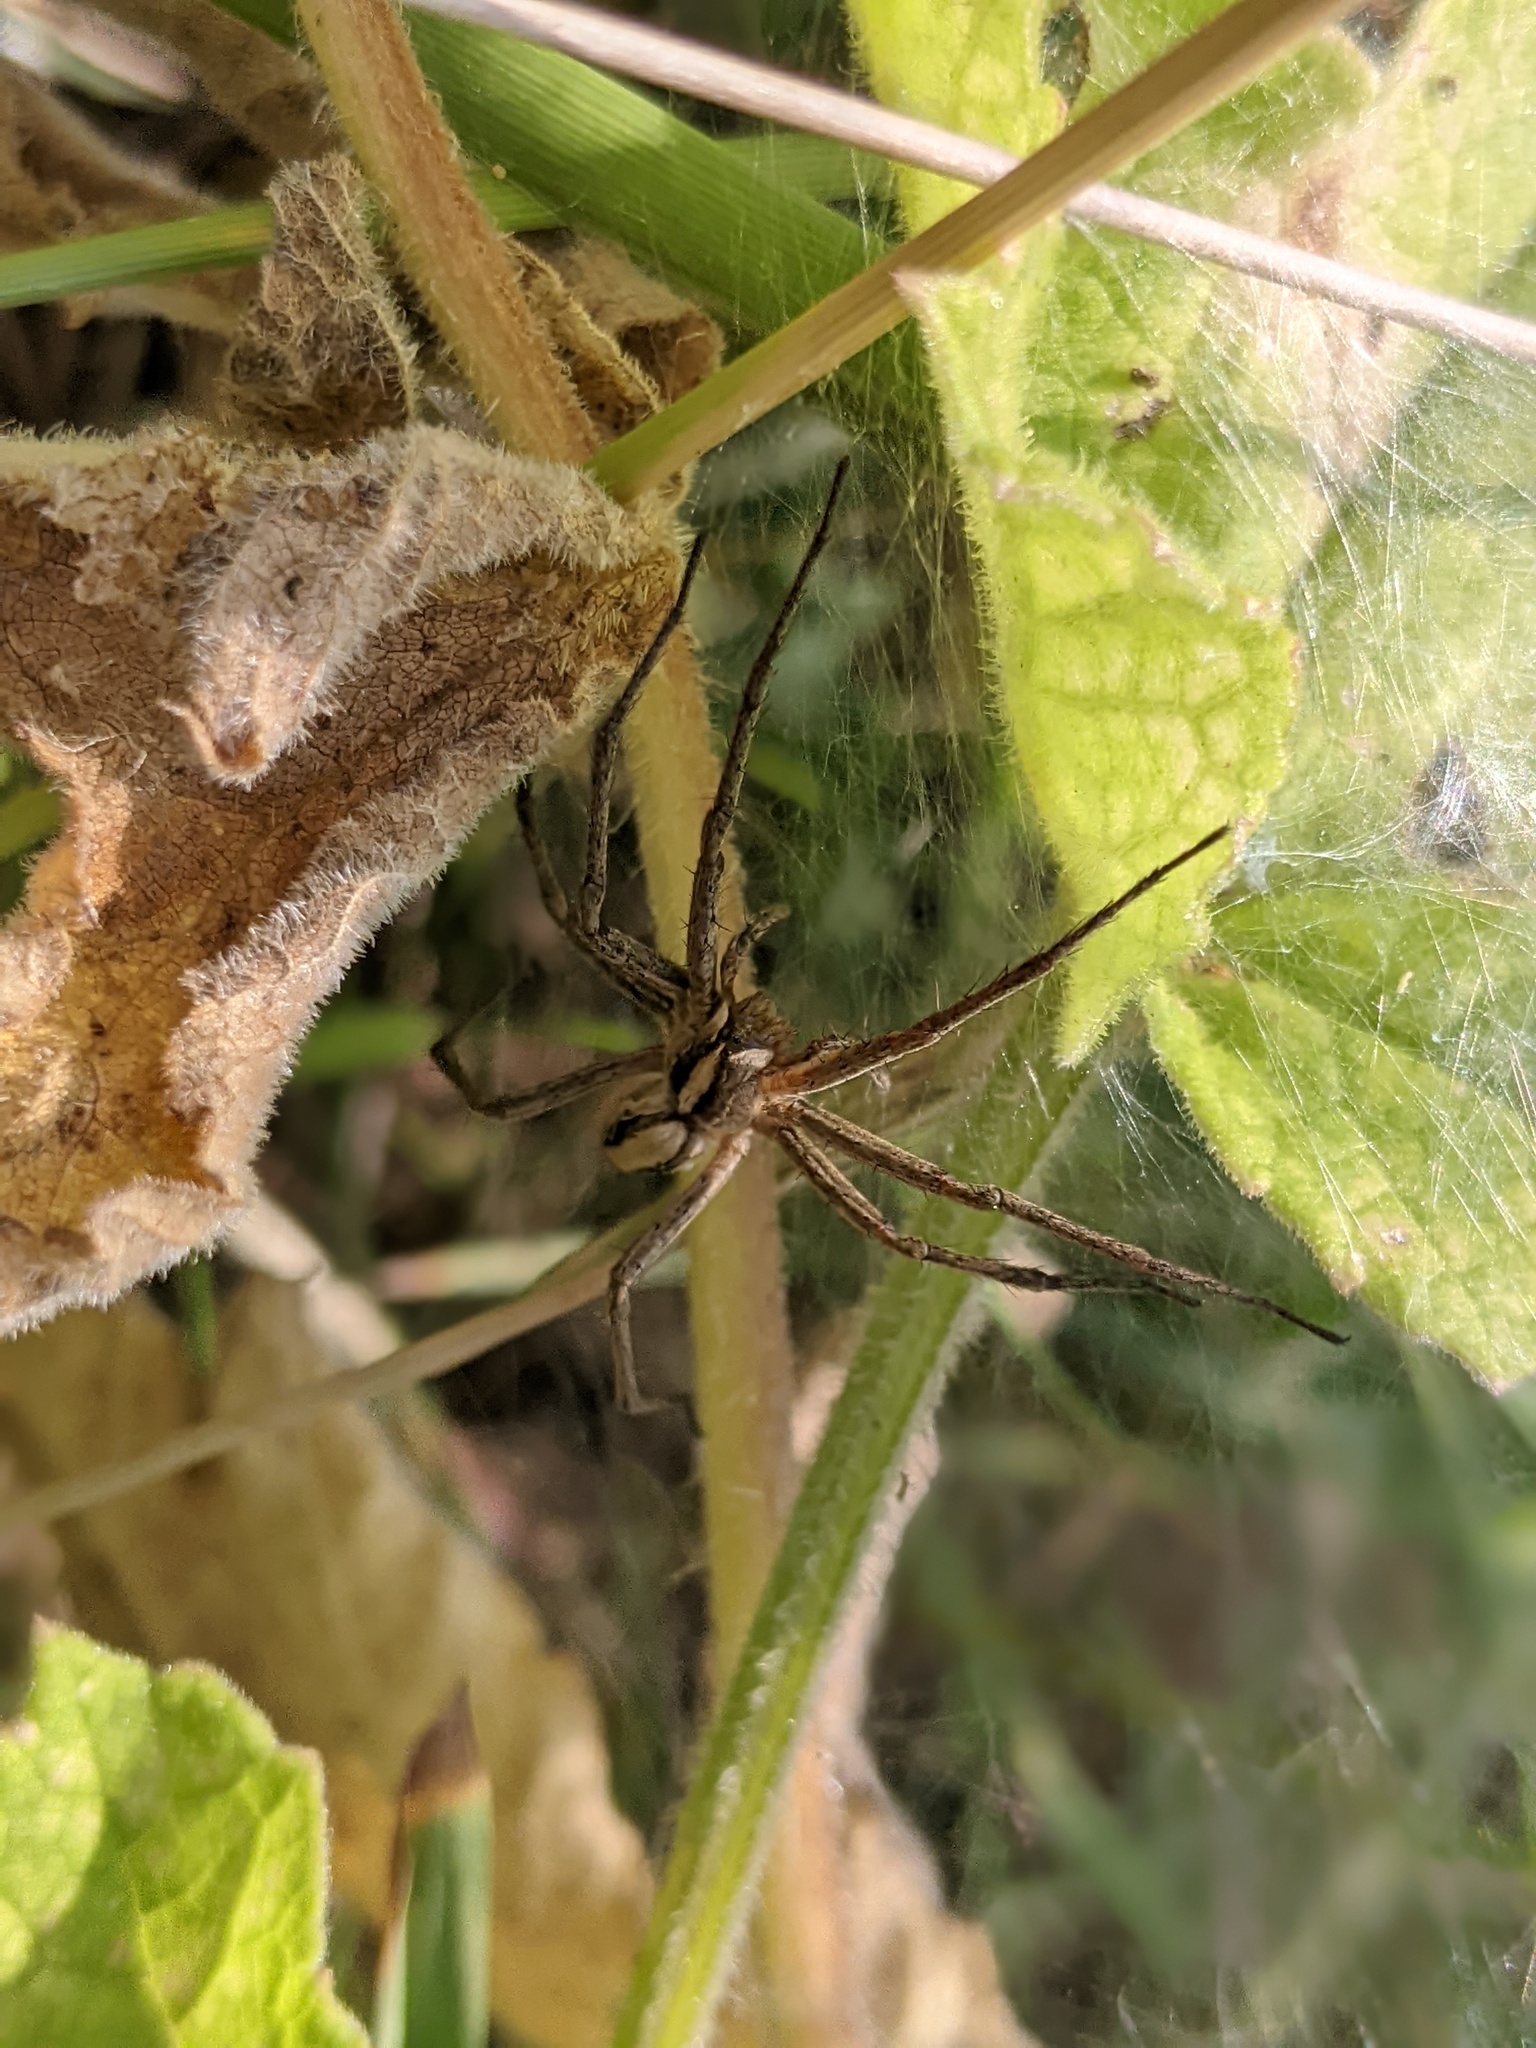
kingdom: Animalia
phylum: Arthropoda
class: Arachnida
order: Araneae
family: Pisauridae
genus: Pisaura
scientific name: Pisaura mirabilis
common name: Tent spider
